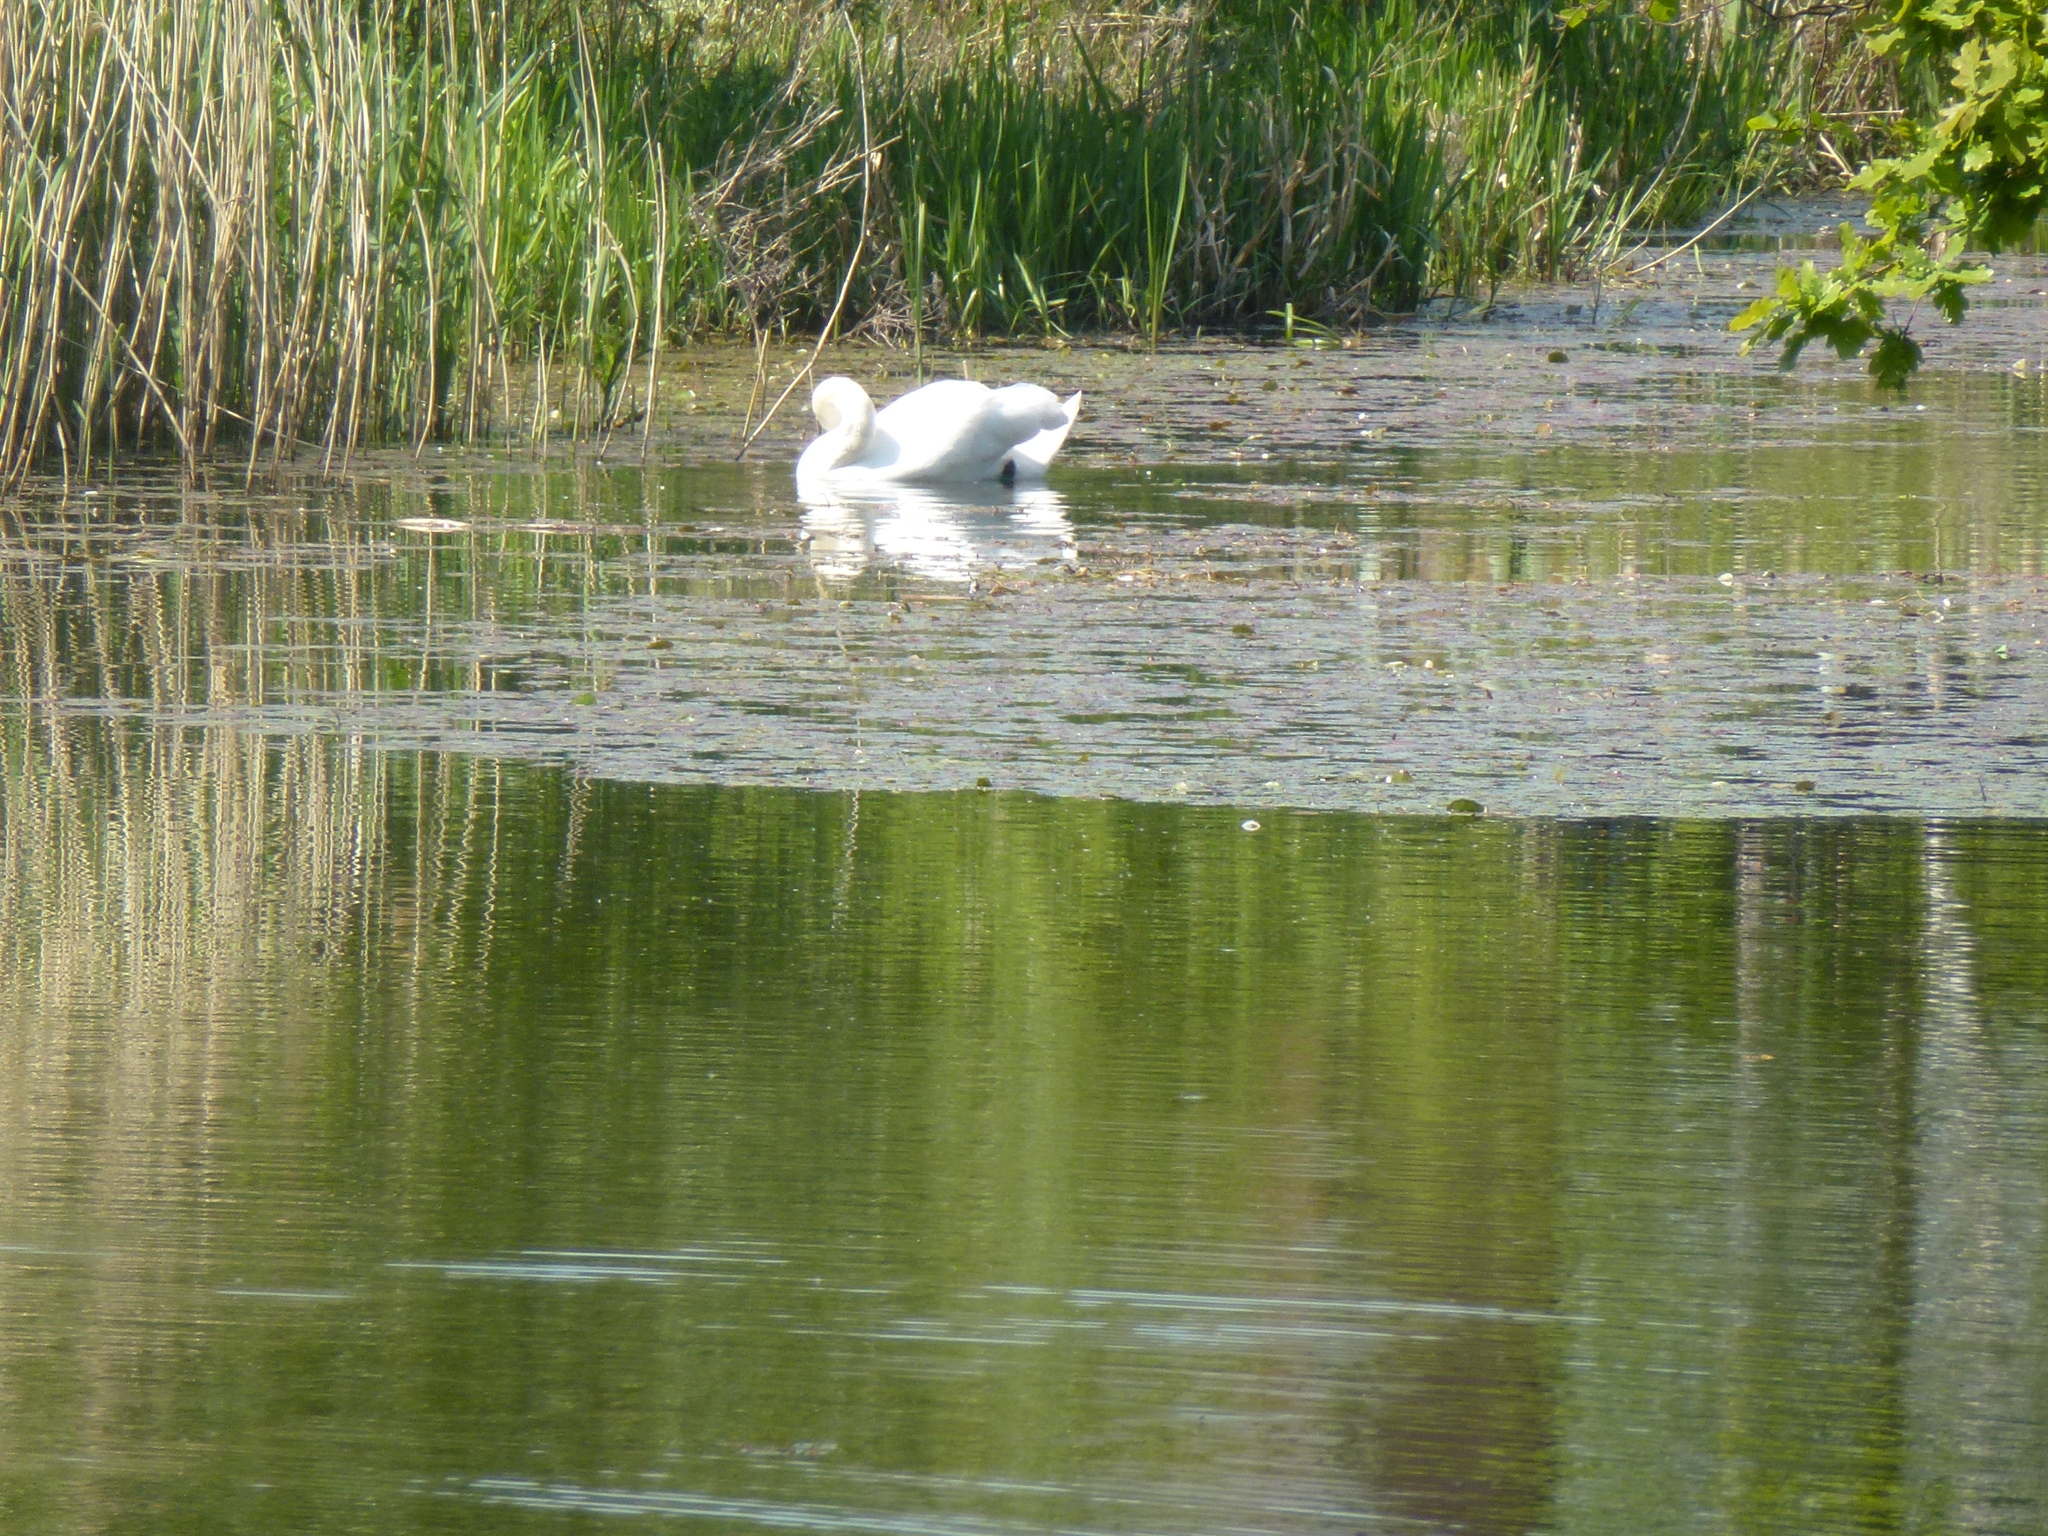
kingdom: Animalia
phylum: Chordata
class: Aves
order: Anseriformes
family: Anatidae
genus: Cygnus
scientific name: Cygnus olor
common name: Mute swan
